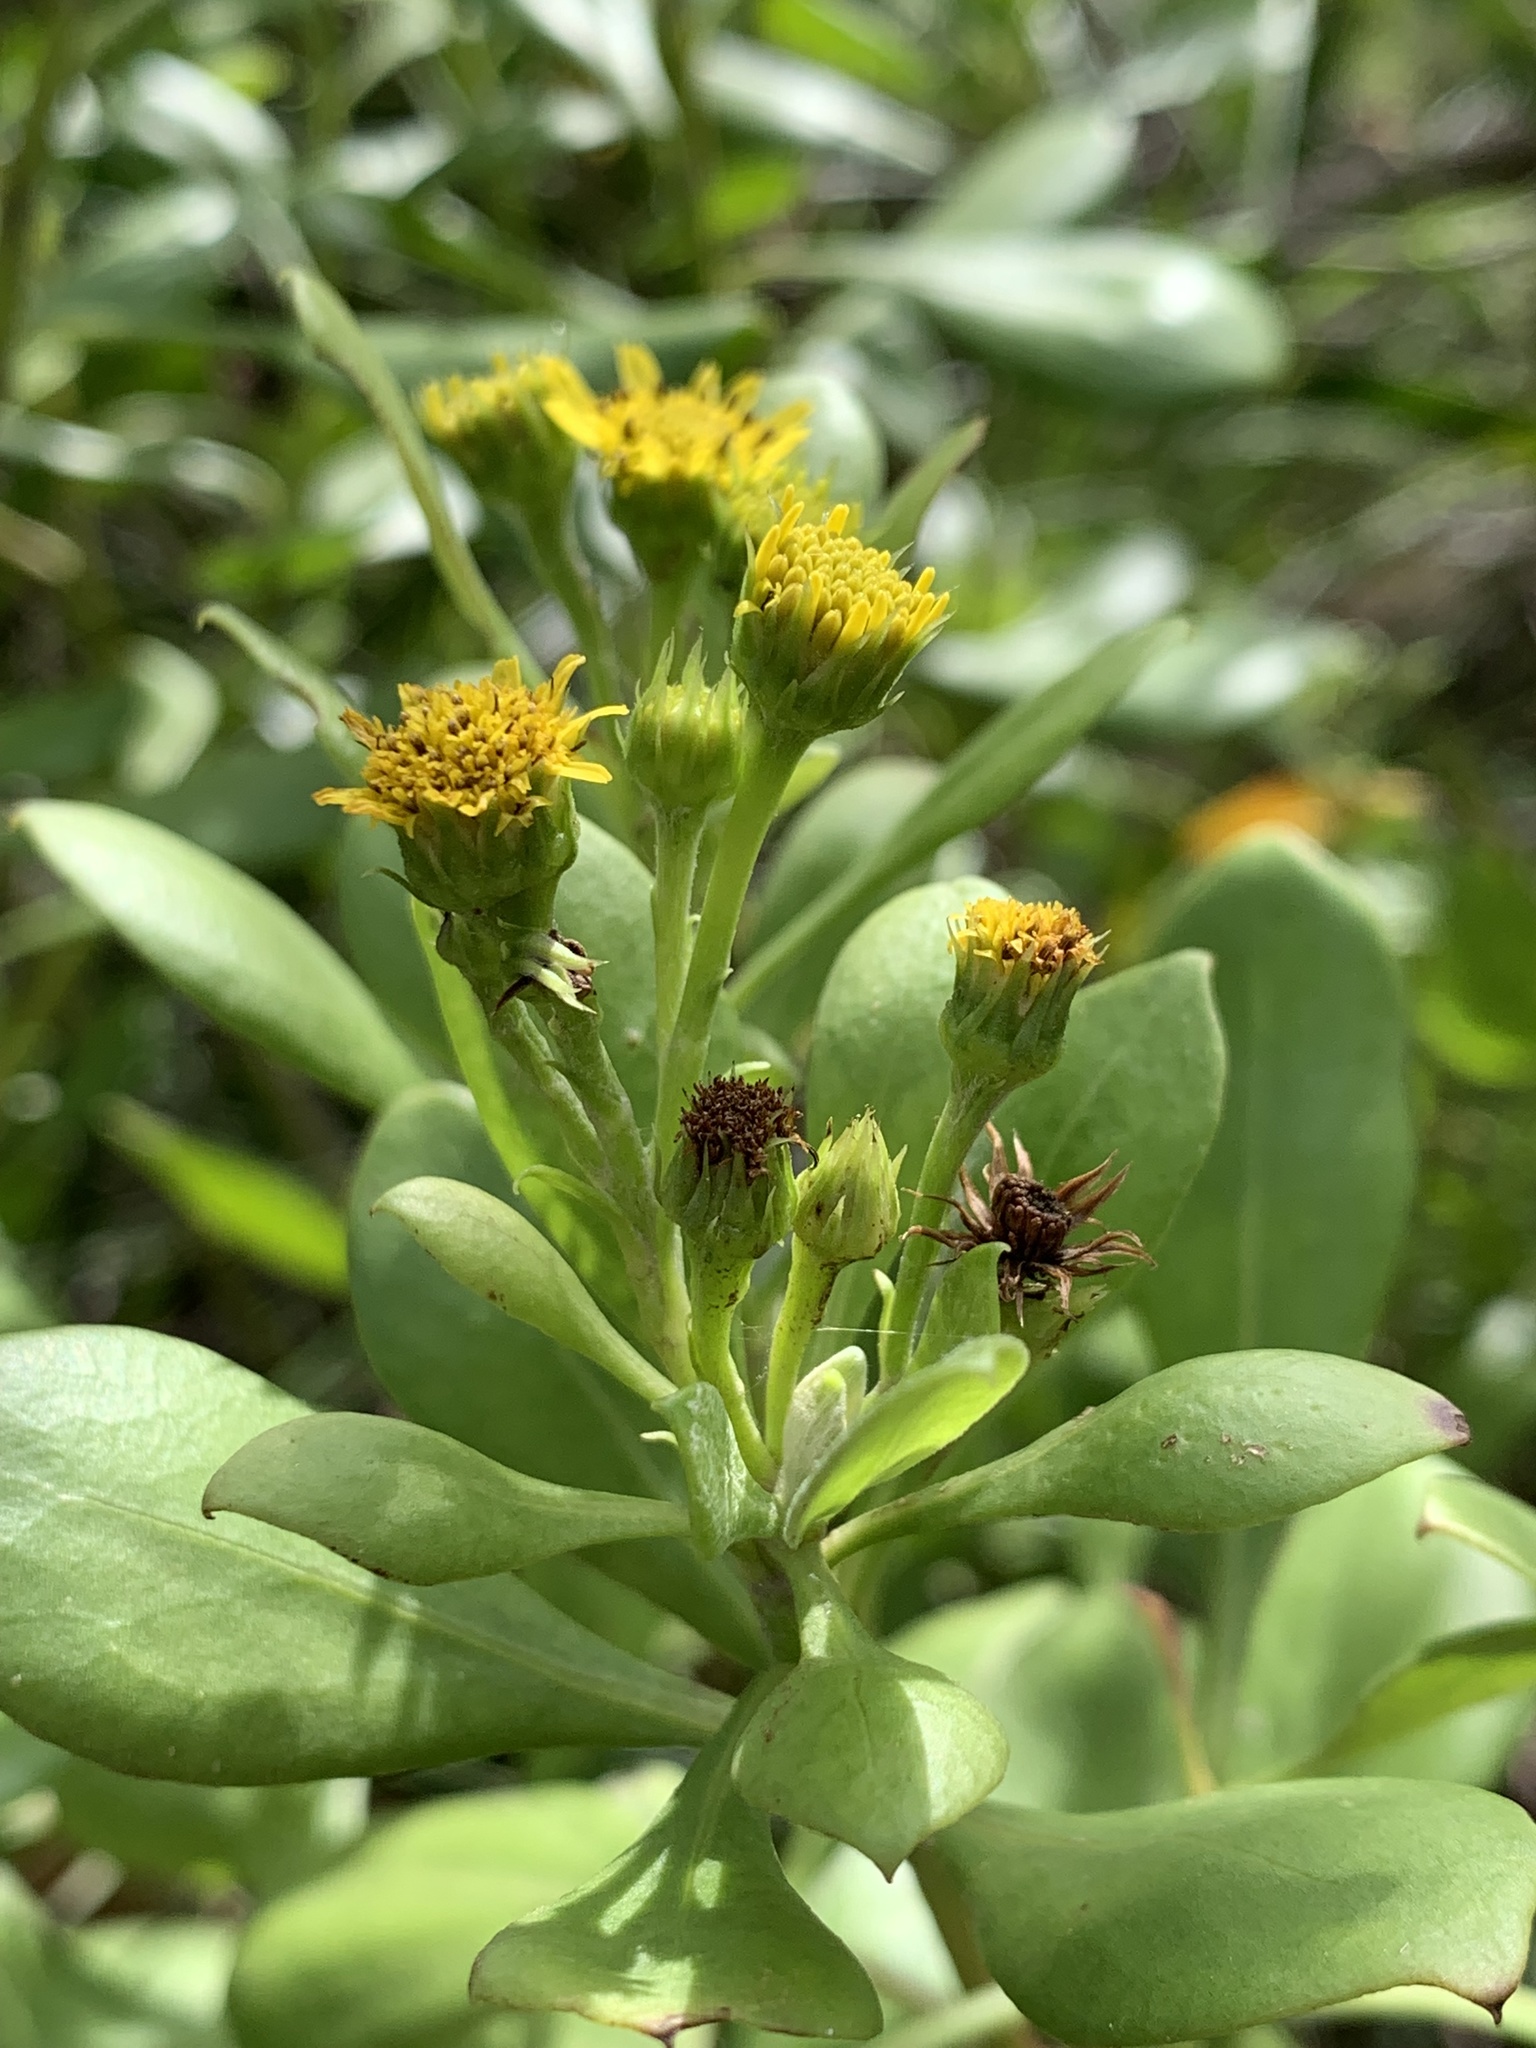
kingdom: Plantae
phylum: Tracheophyta
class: Magnoliopsida
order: Asterales
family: Asteraceae
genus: Osteospermum
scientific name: Osteospermum moniliferum
